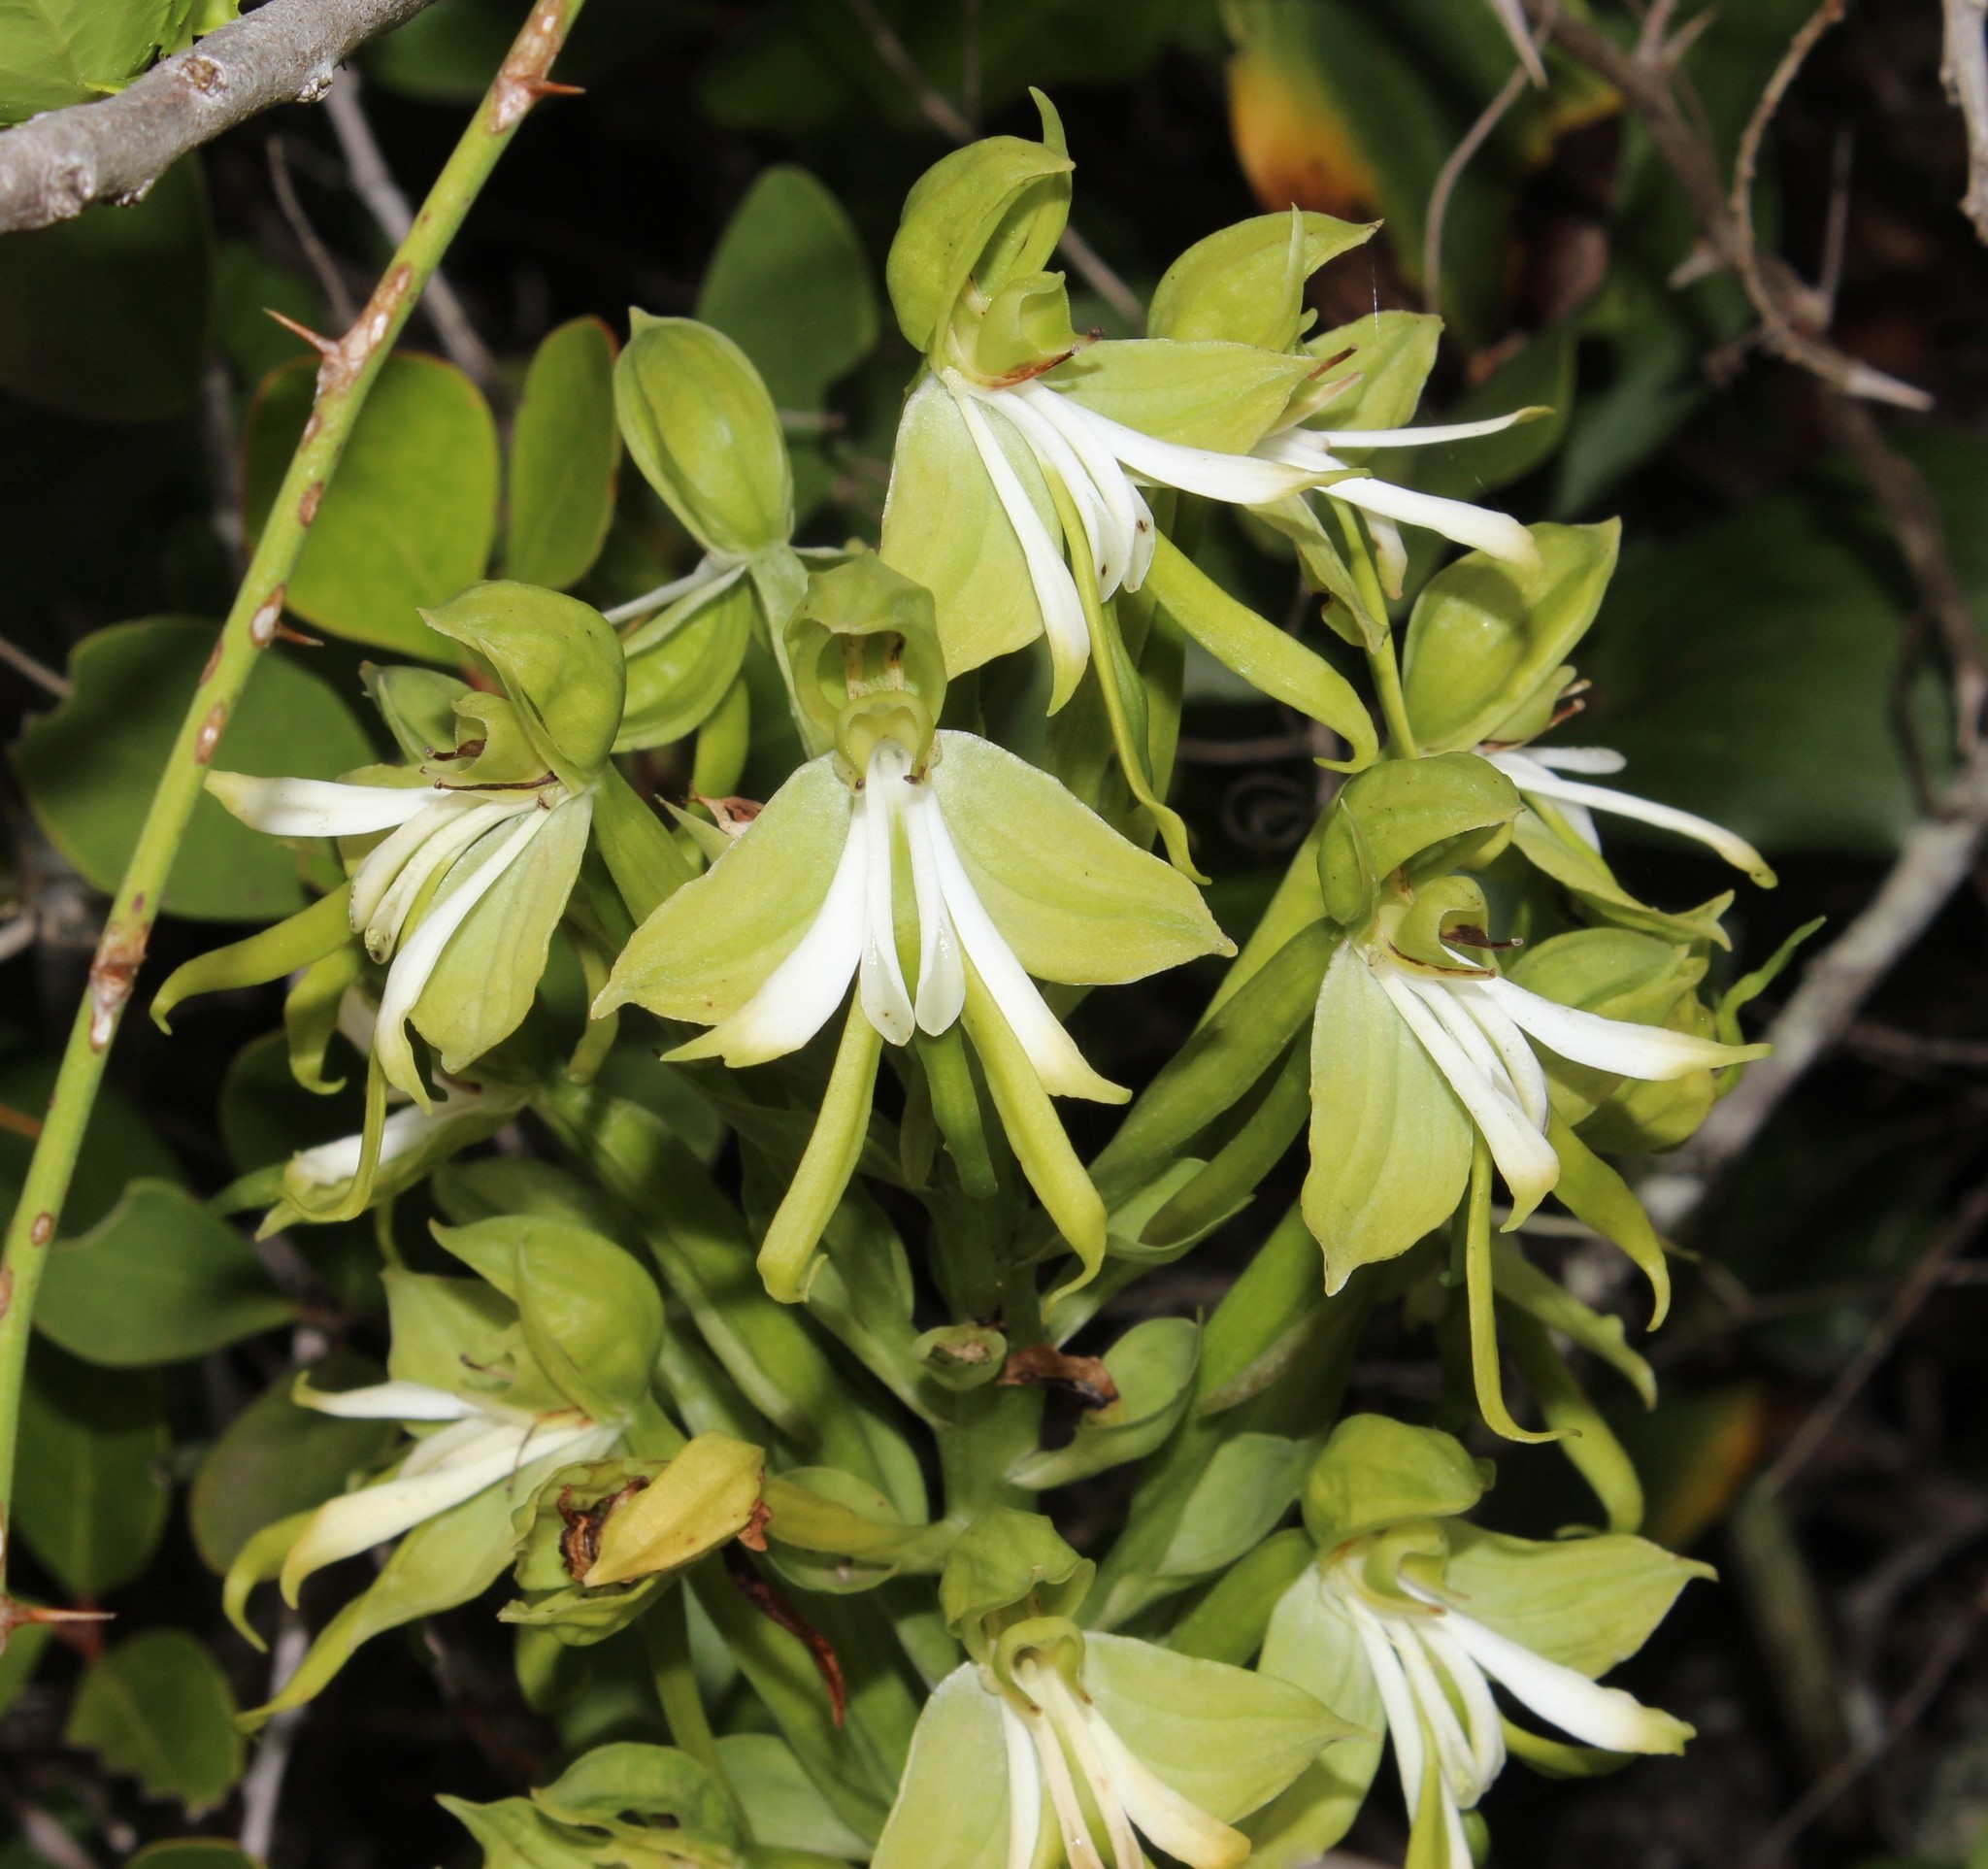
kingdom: Plantae
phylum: Tracheophyta
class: Liliopsida
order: Asparagales
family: Orchidaceae
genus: Bonatea
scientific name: Bonatea speciosa
